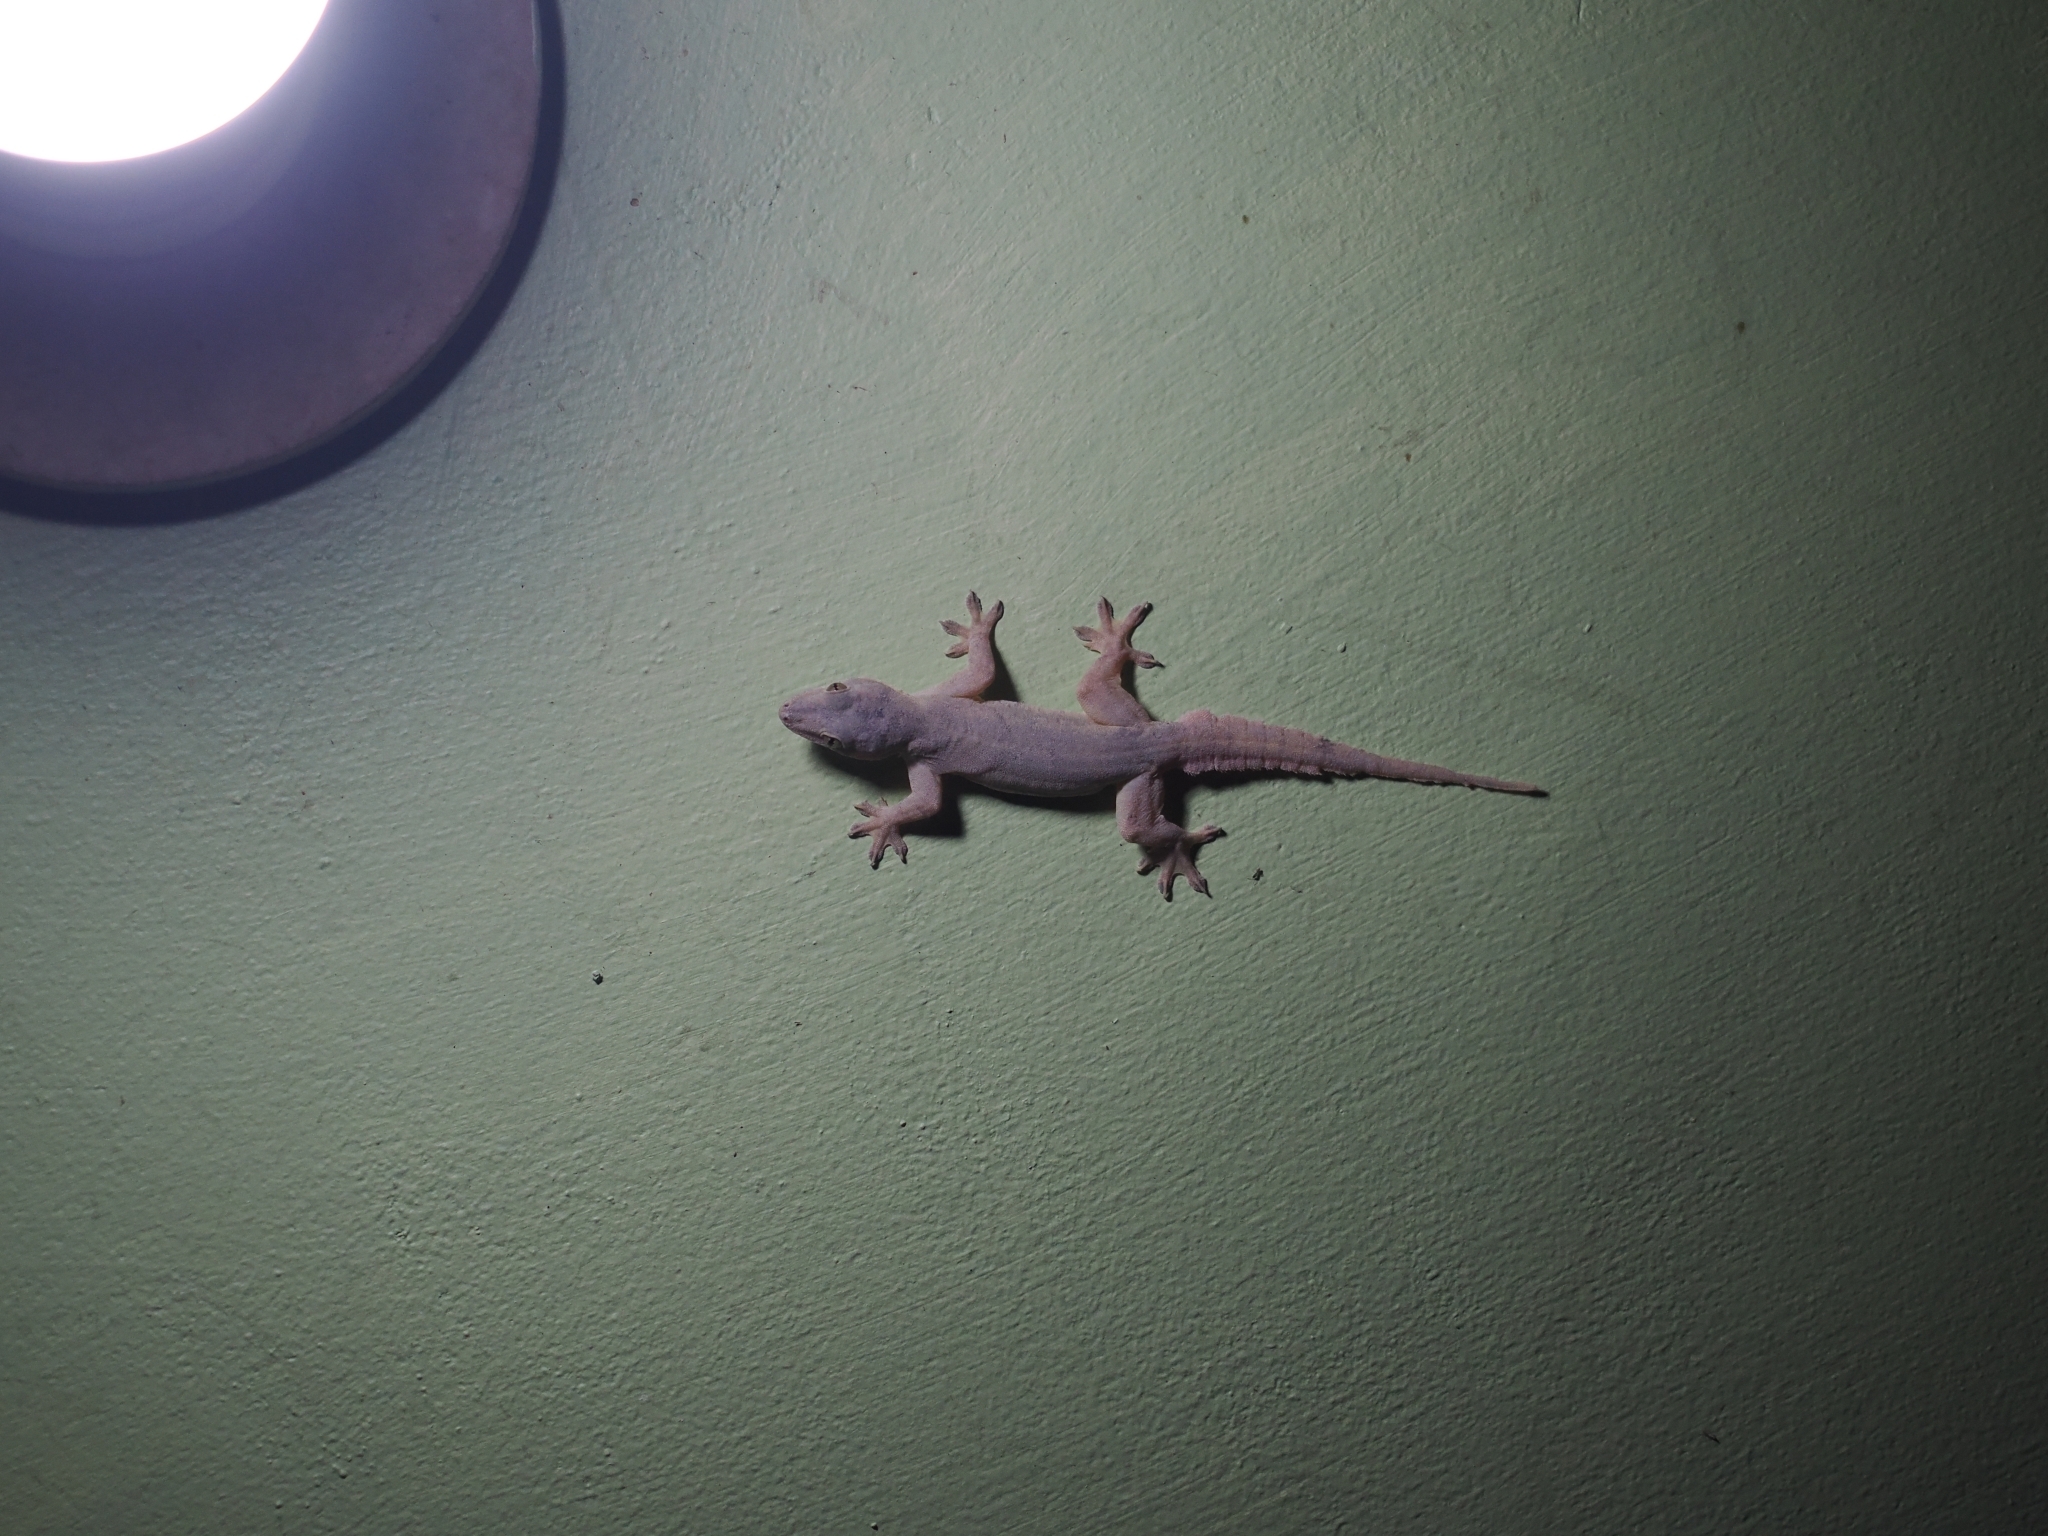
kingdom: Animalia
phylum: Chordata
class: Squamata
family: Gekkonidae
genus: Hemidactylus
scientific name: Hemidactylus platyurus
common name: Flat-tailed house gecko
